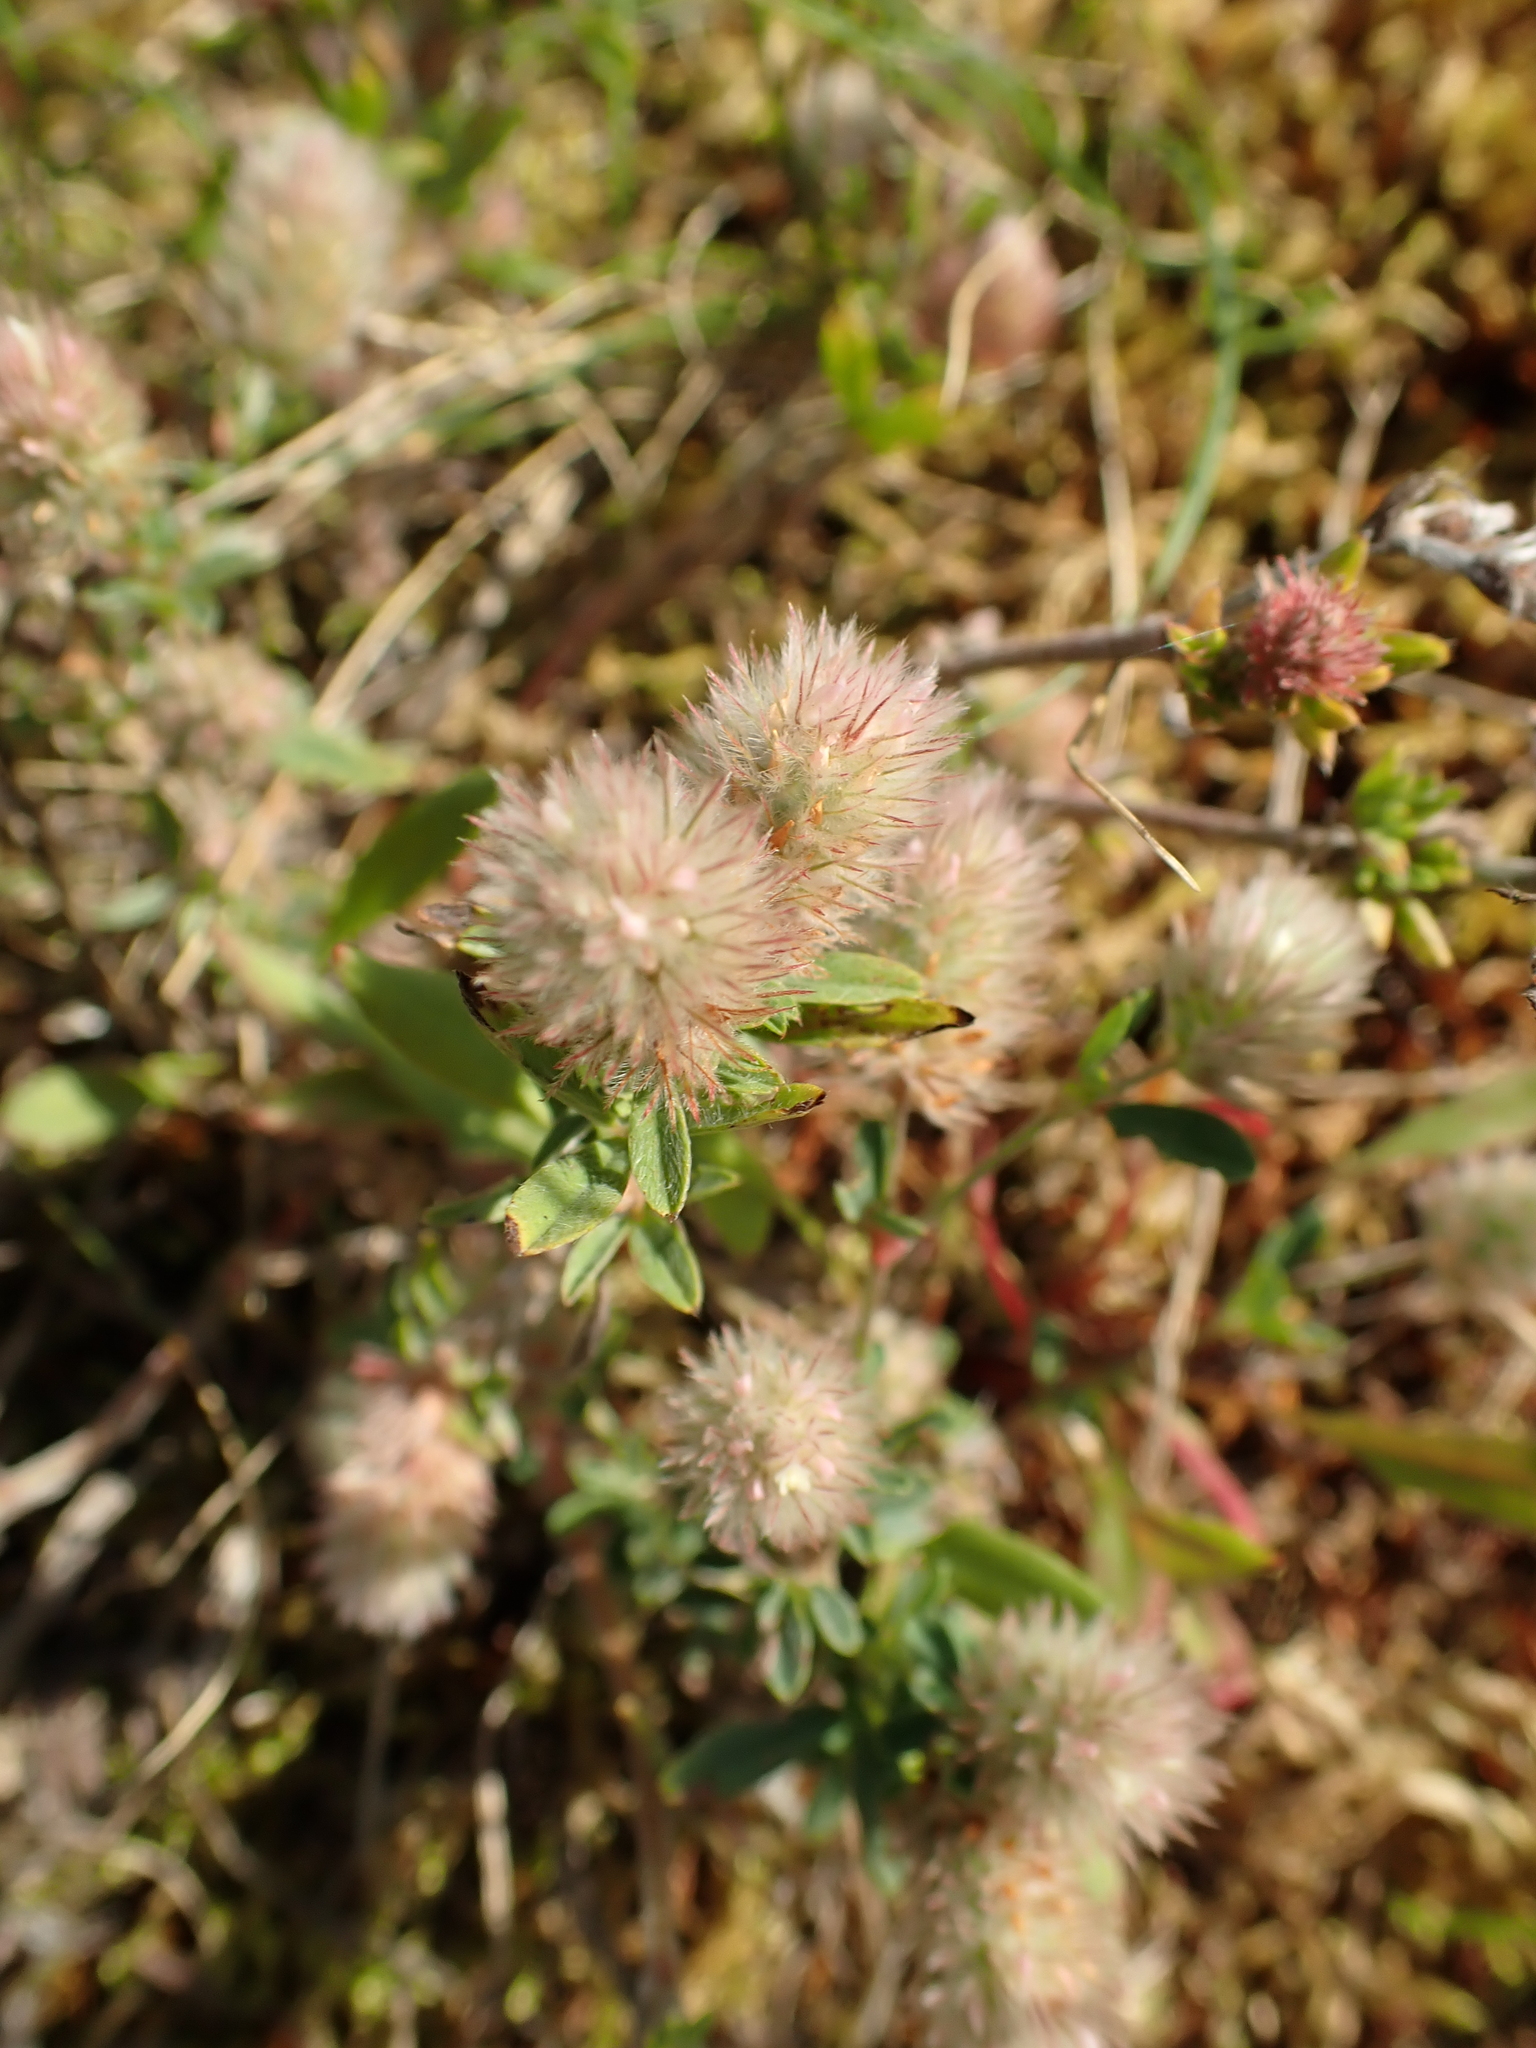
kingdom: Plantae
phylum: Tracheophyta
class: Magnoliopsida
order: Fabales
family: Fabaceae
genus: Trifolium
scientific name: Trifolium arvense
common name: Hare's-foot clover
